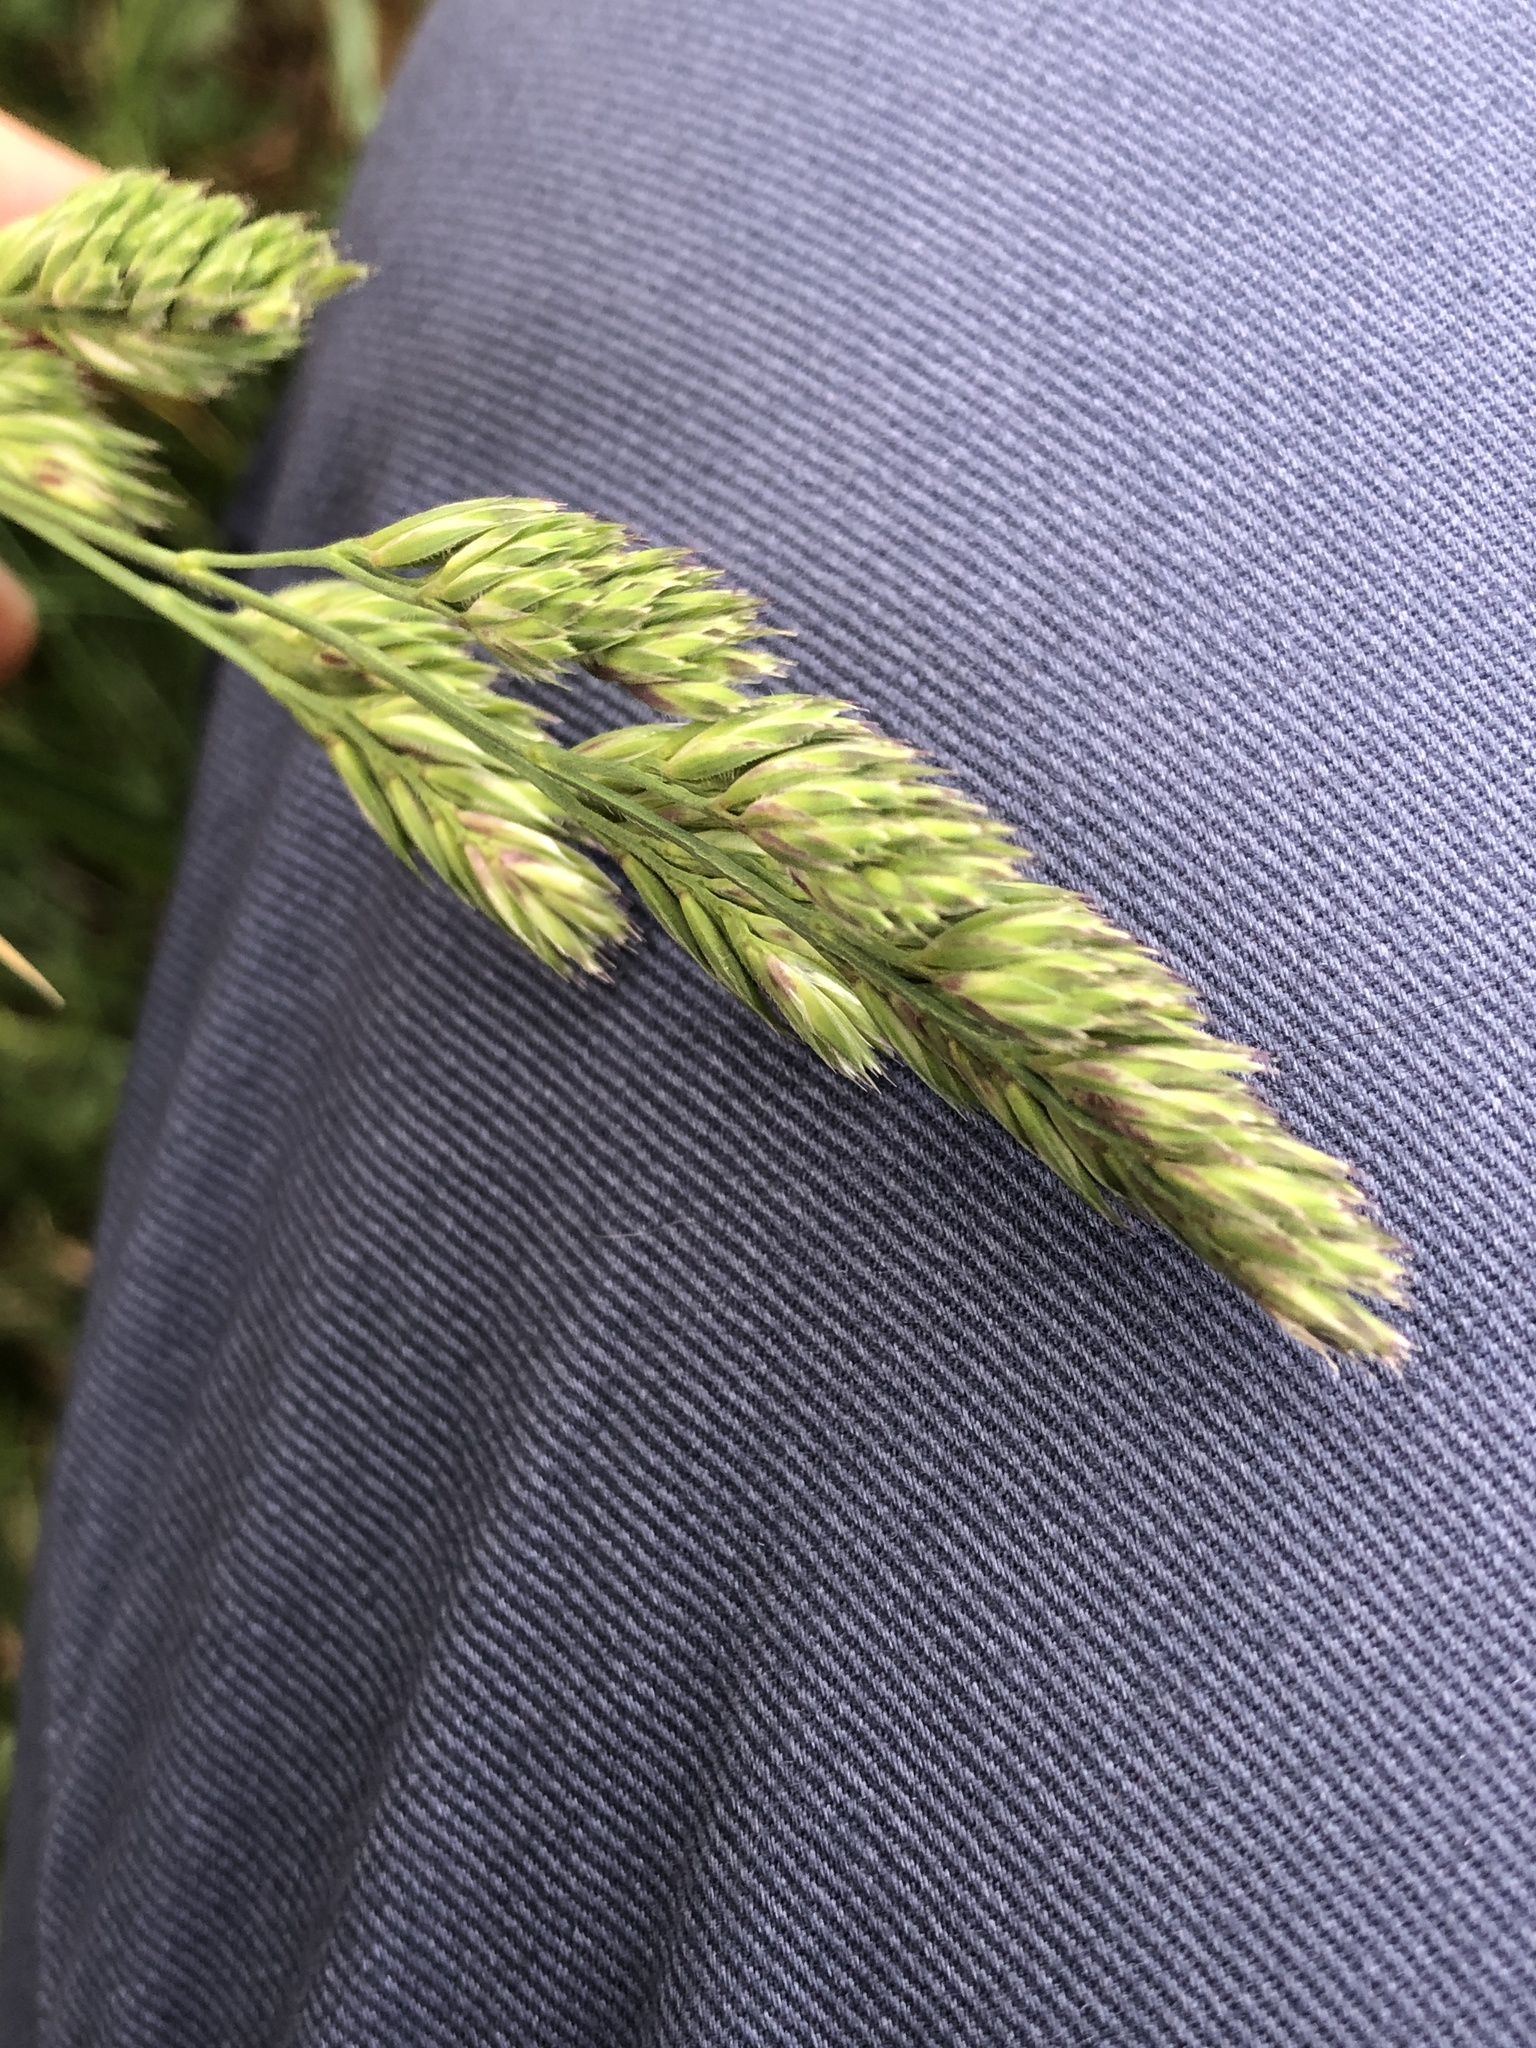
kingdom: Plantae
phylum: Tracheophyta
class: Liliopsida
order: Poales
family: Poaceae
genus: Dactylis
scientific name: Dactylis glomerata
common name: Orchardgrass
